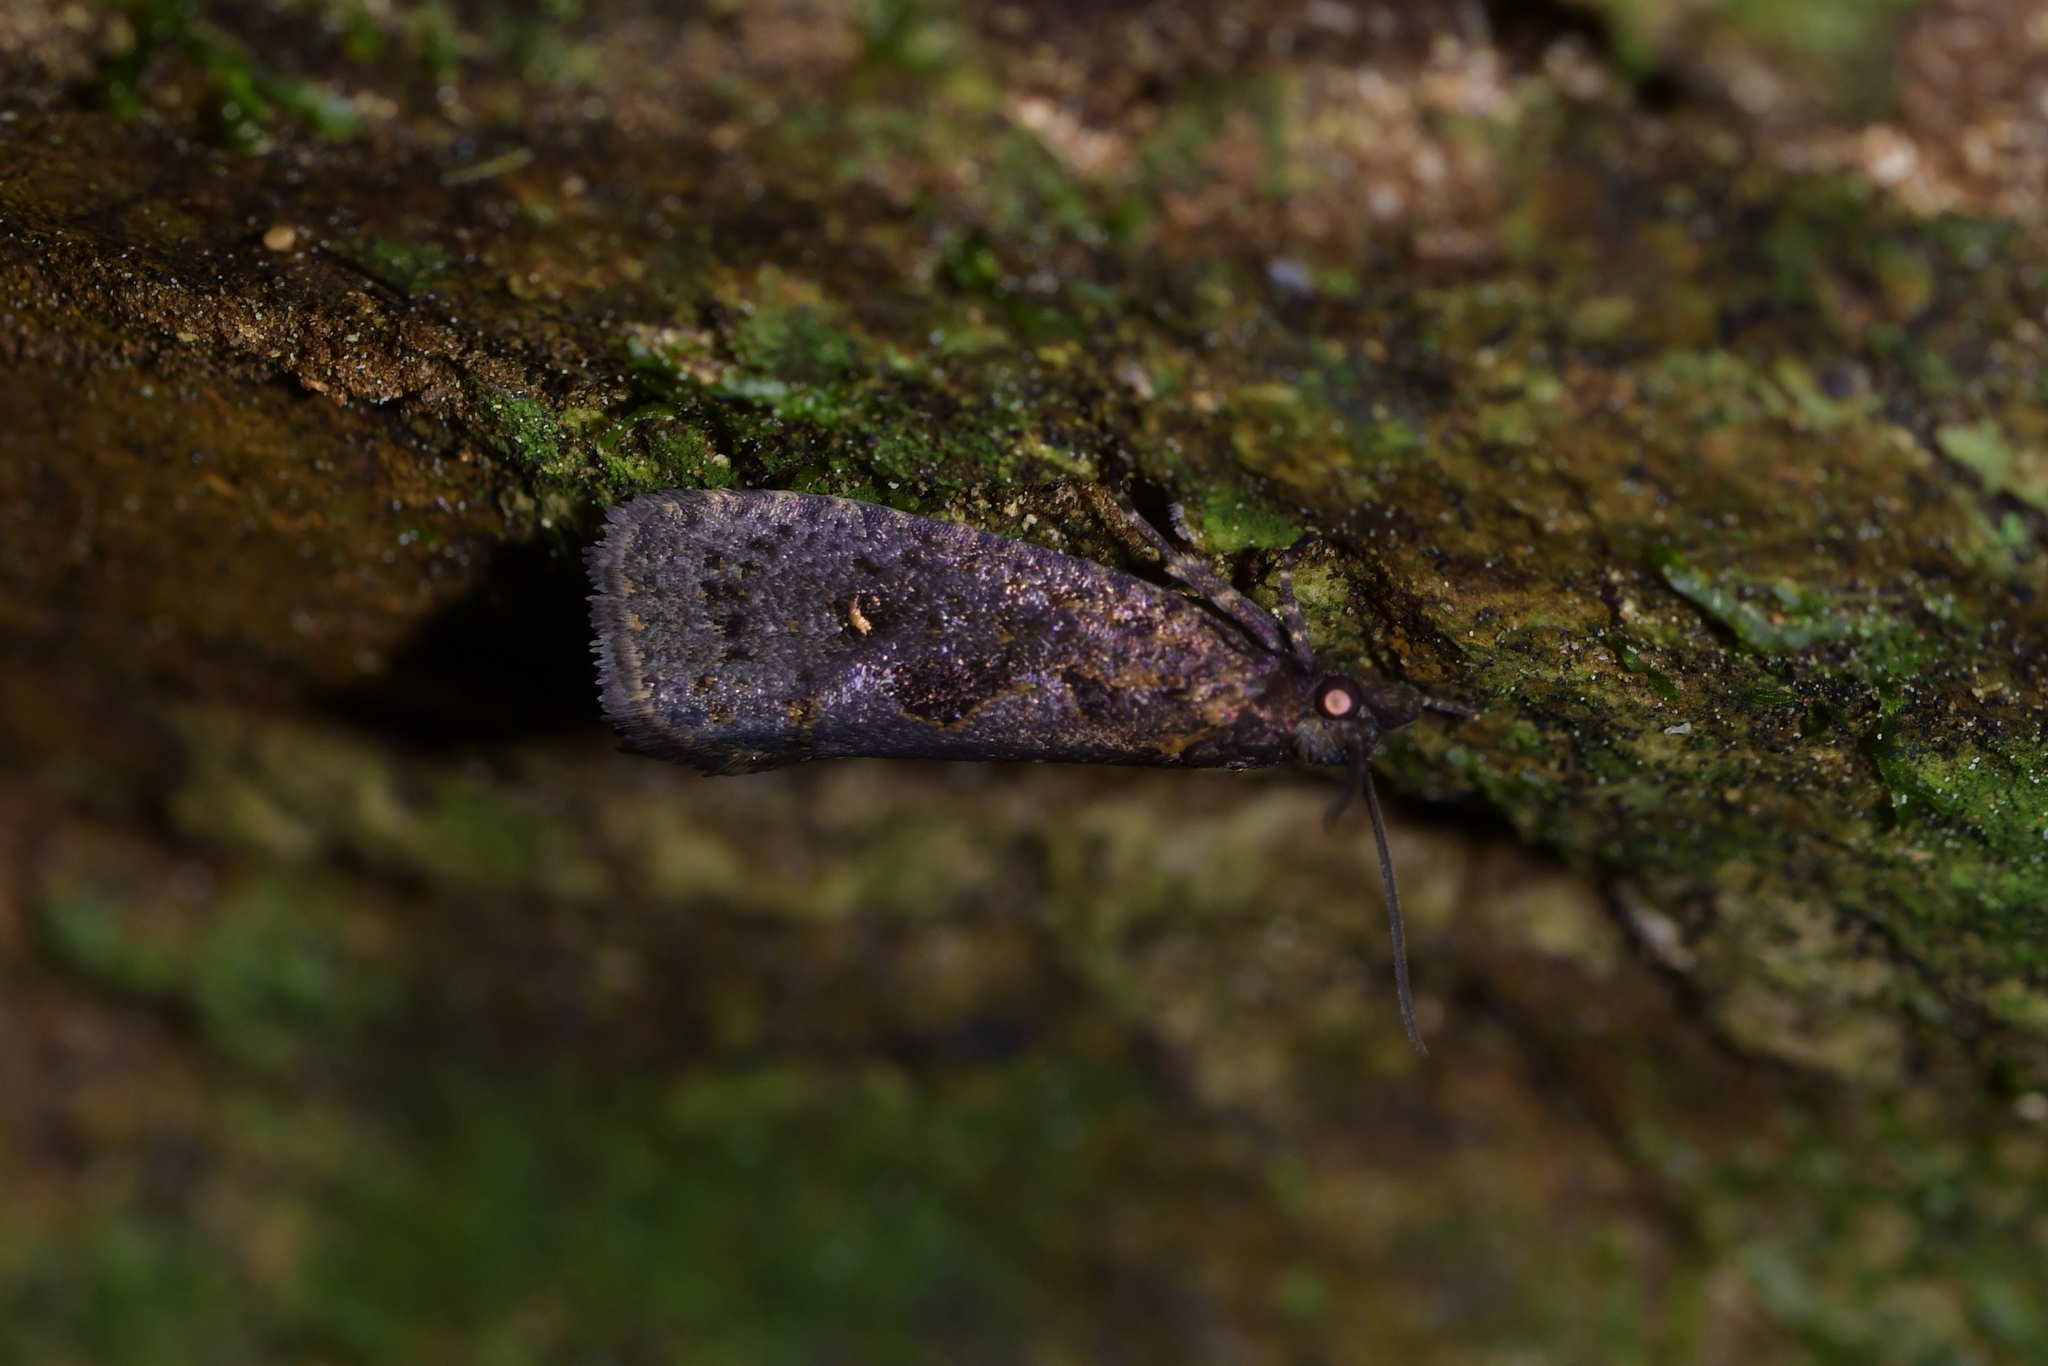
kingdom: Animalia
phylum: Arthropoda
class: Insecta
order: Lepidoptera
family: Tortricidae
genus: Cryptaspasma
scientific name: Cryptaspasma querula
